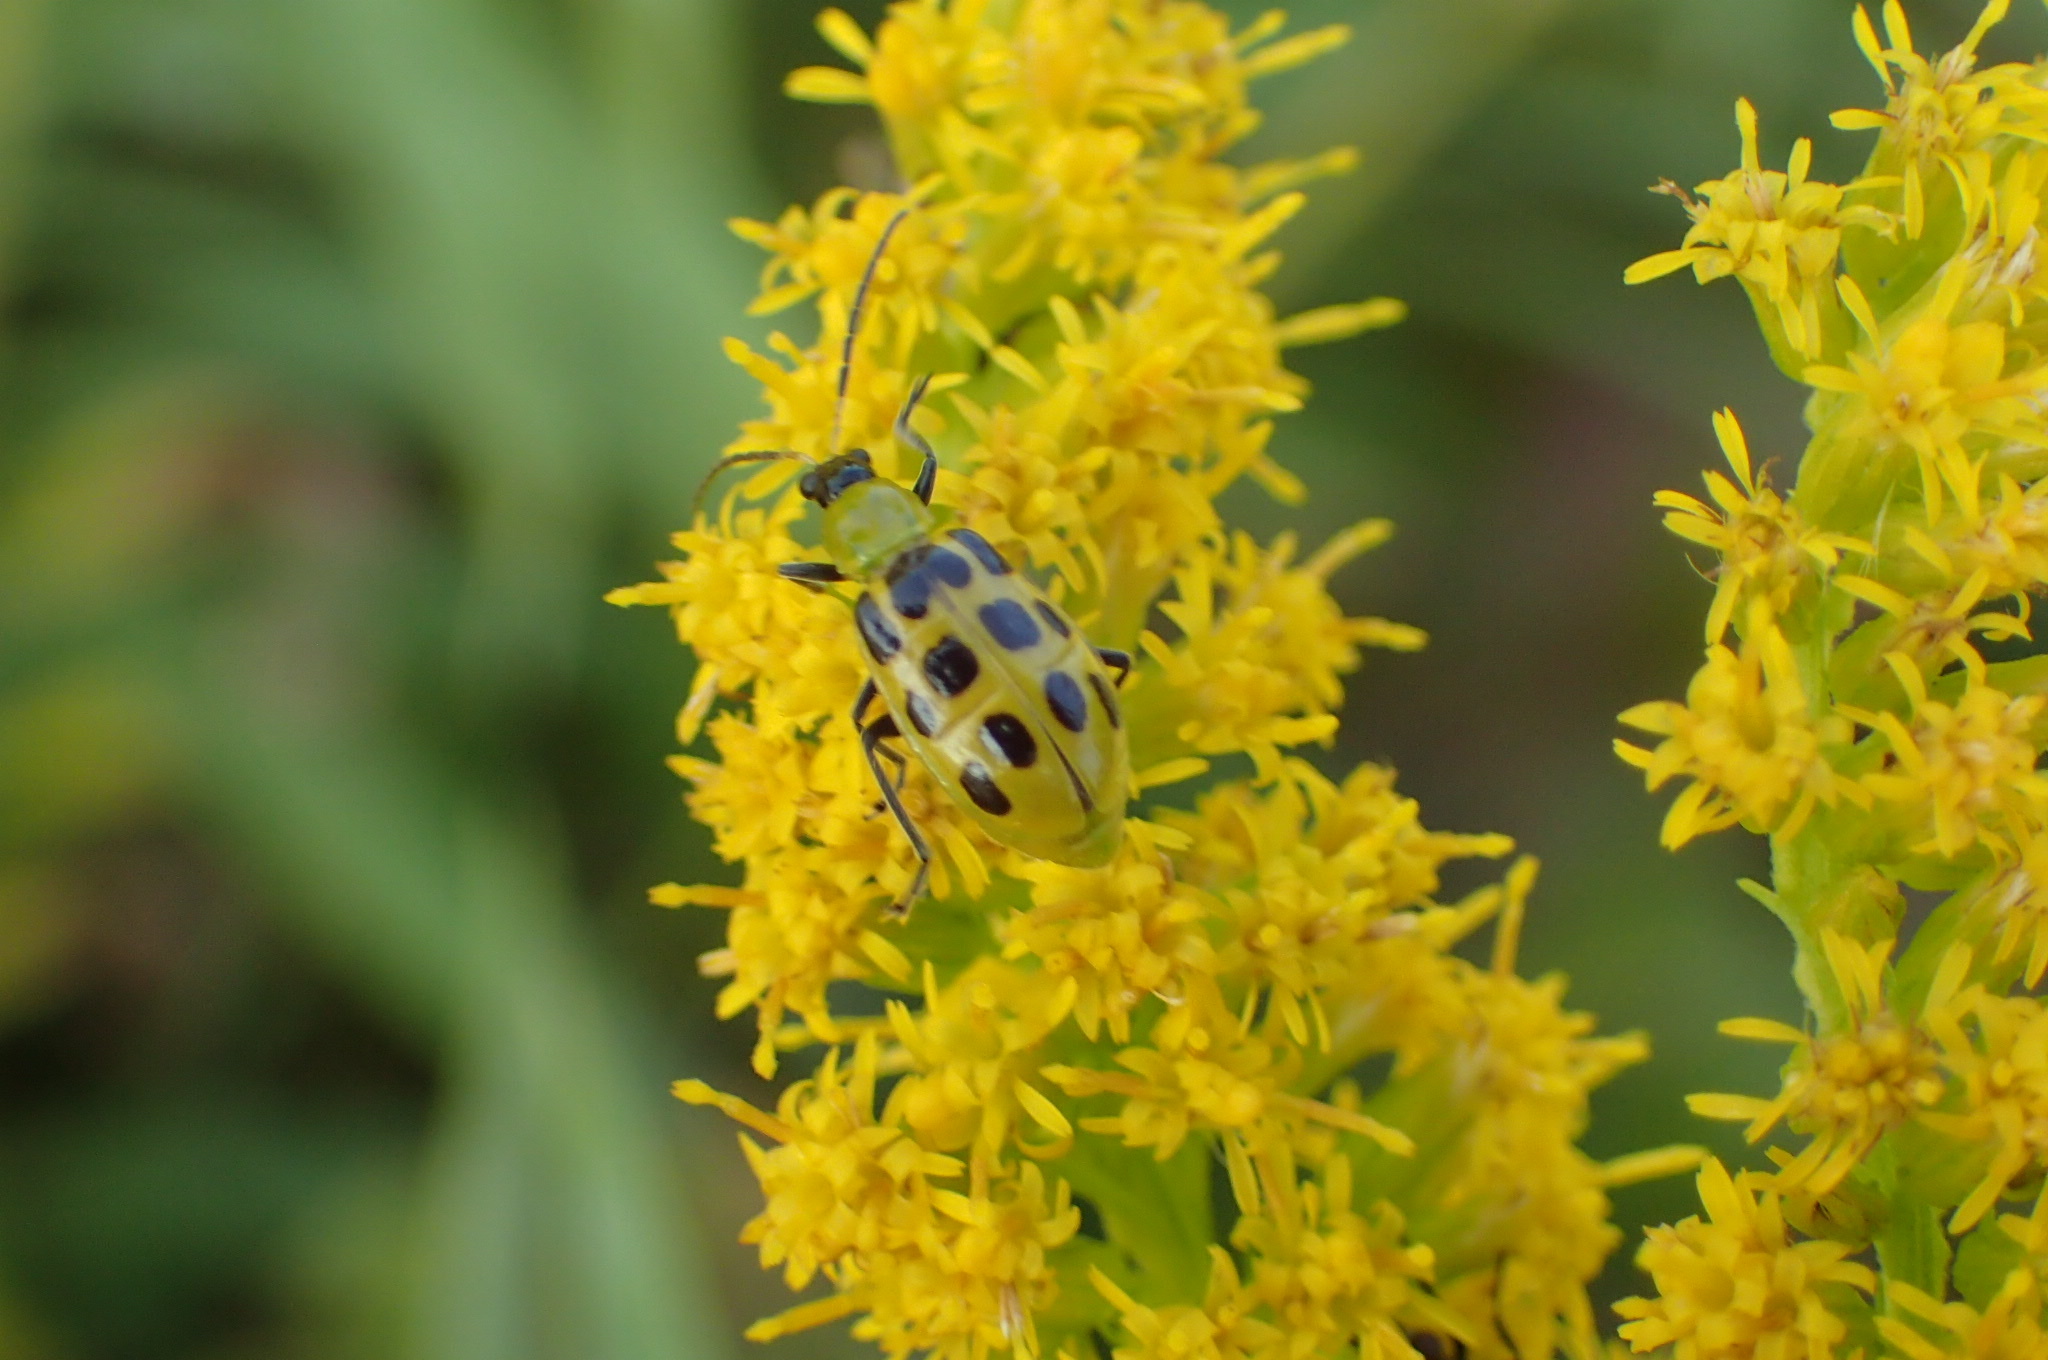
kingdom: Animalia
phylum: Arthropoda
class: Insecta
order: Coleoptera
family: Chrysomelidae
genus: Diabrotica
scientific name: Diabrotica undecimpunctata
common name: Spotted cucumber beetle
